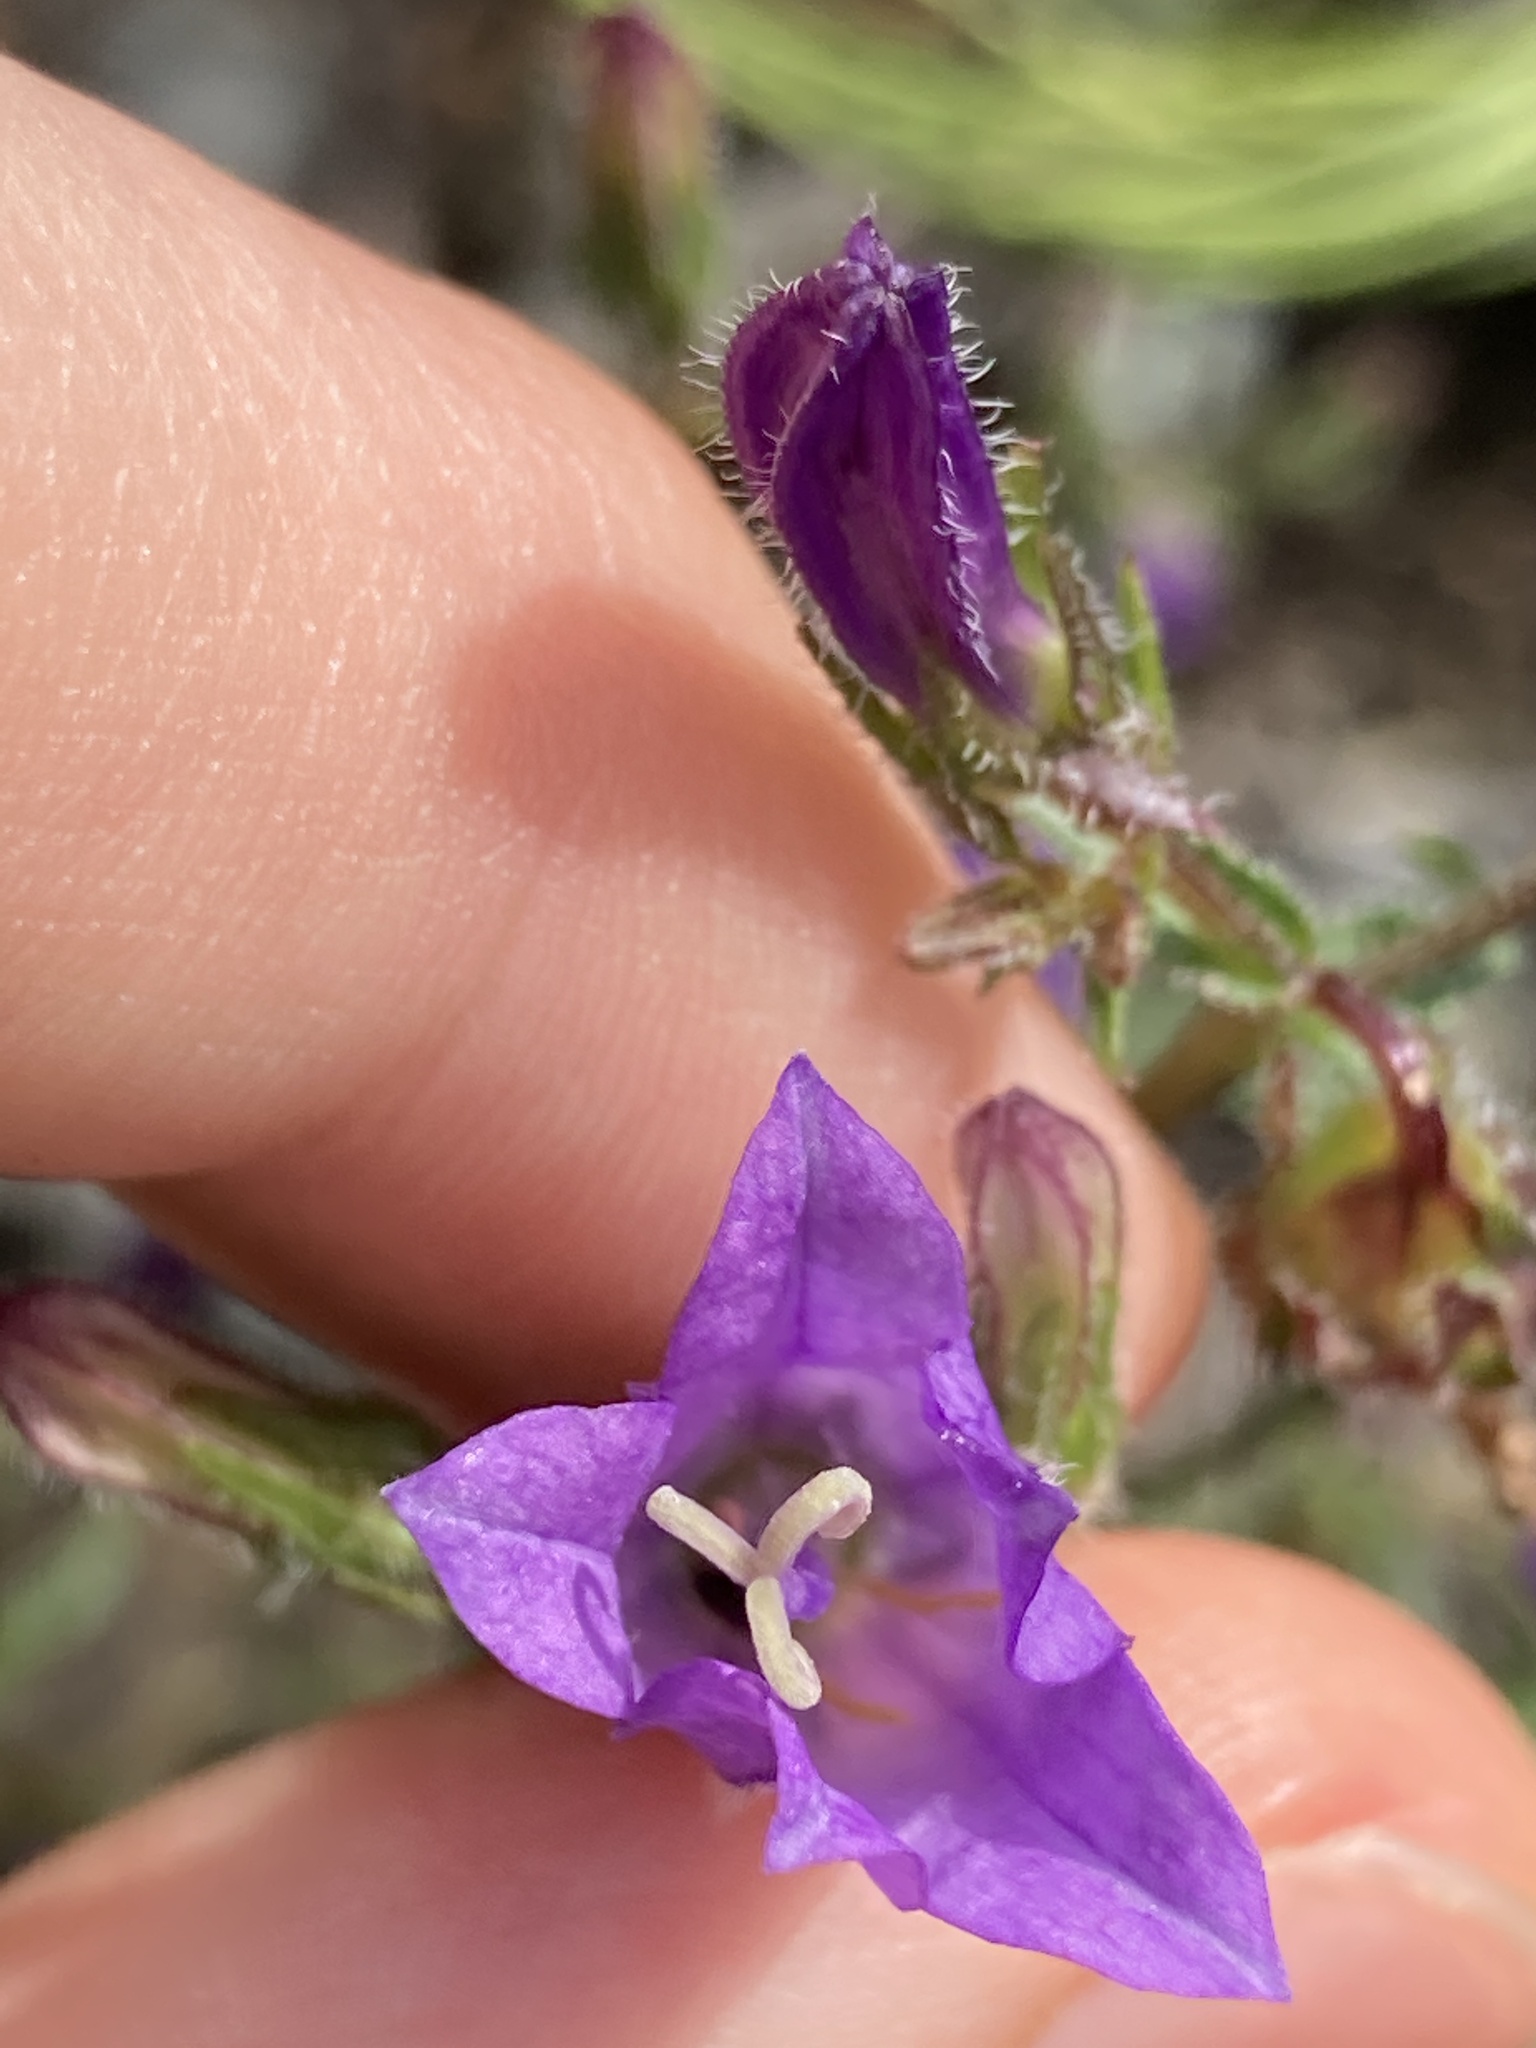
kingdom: Plantae
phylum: Tracheophyta
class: Magnoliopsida
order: Asterales
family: Campanulaceae
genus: Campanula
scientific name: Campanula sibirica
